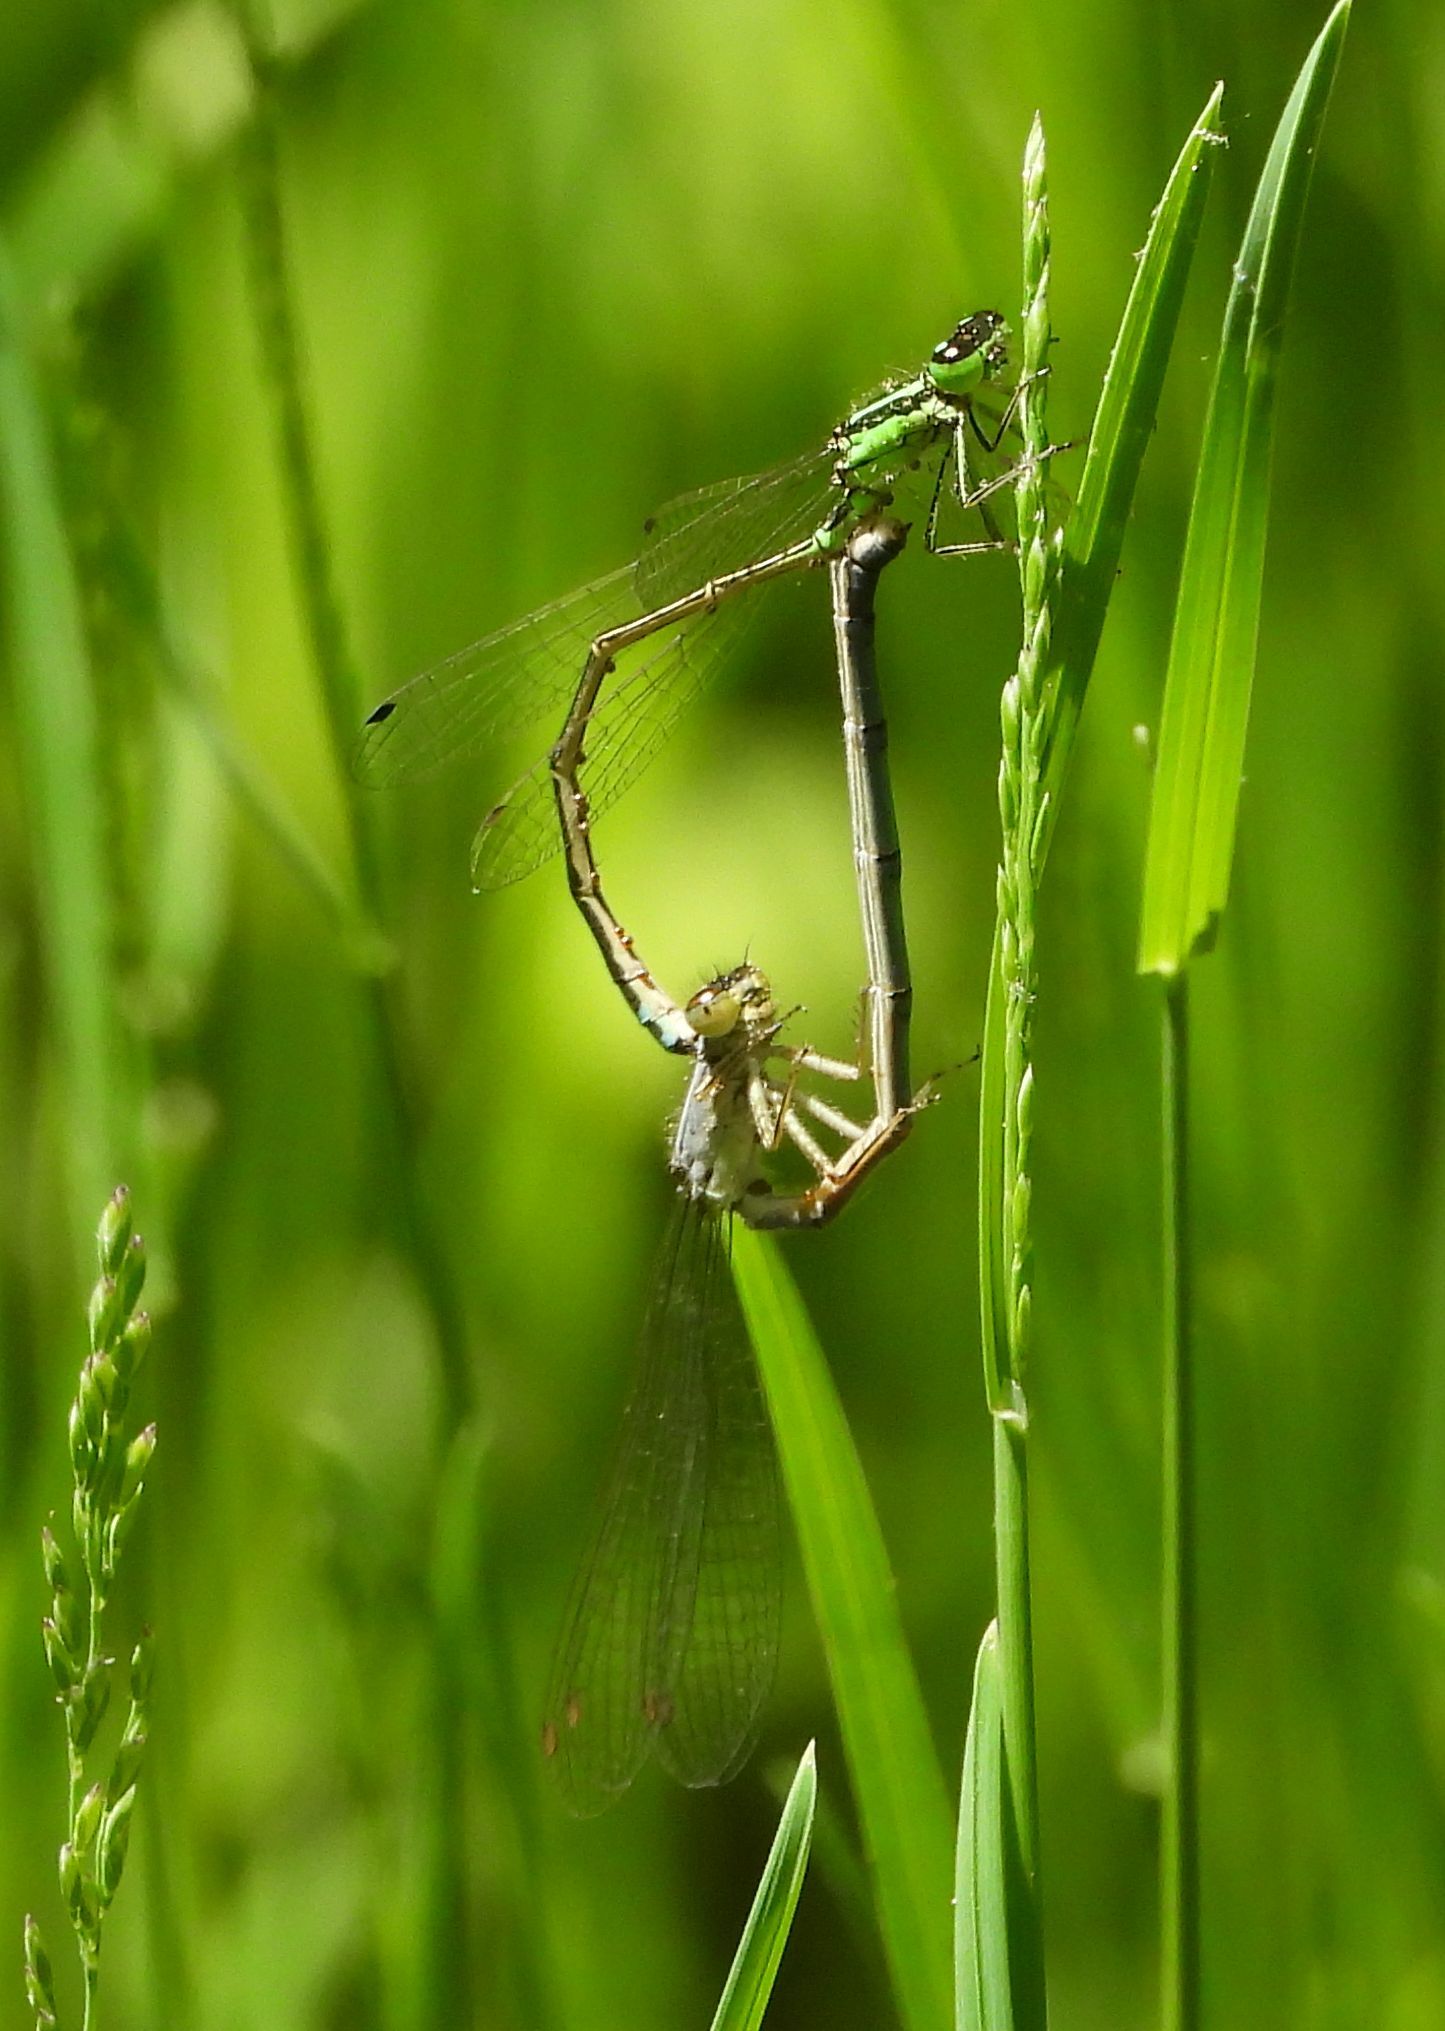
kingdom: Animalia
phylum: Arthropoda
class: Insecta
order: Odonata
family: Coenagrionidae
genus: Ischnura
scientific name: Ischnura verticalis
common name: Eastern forktail
